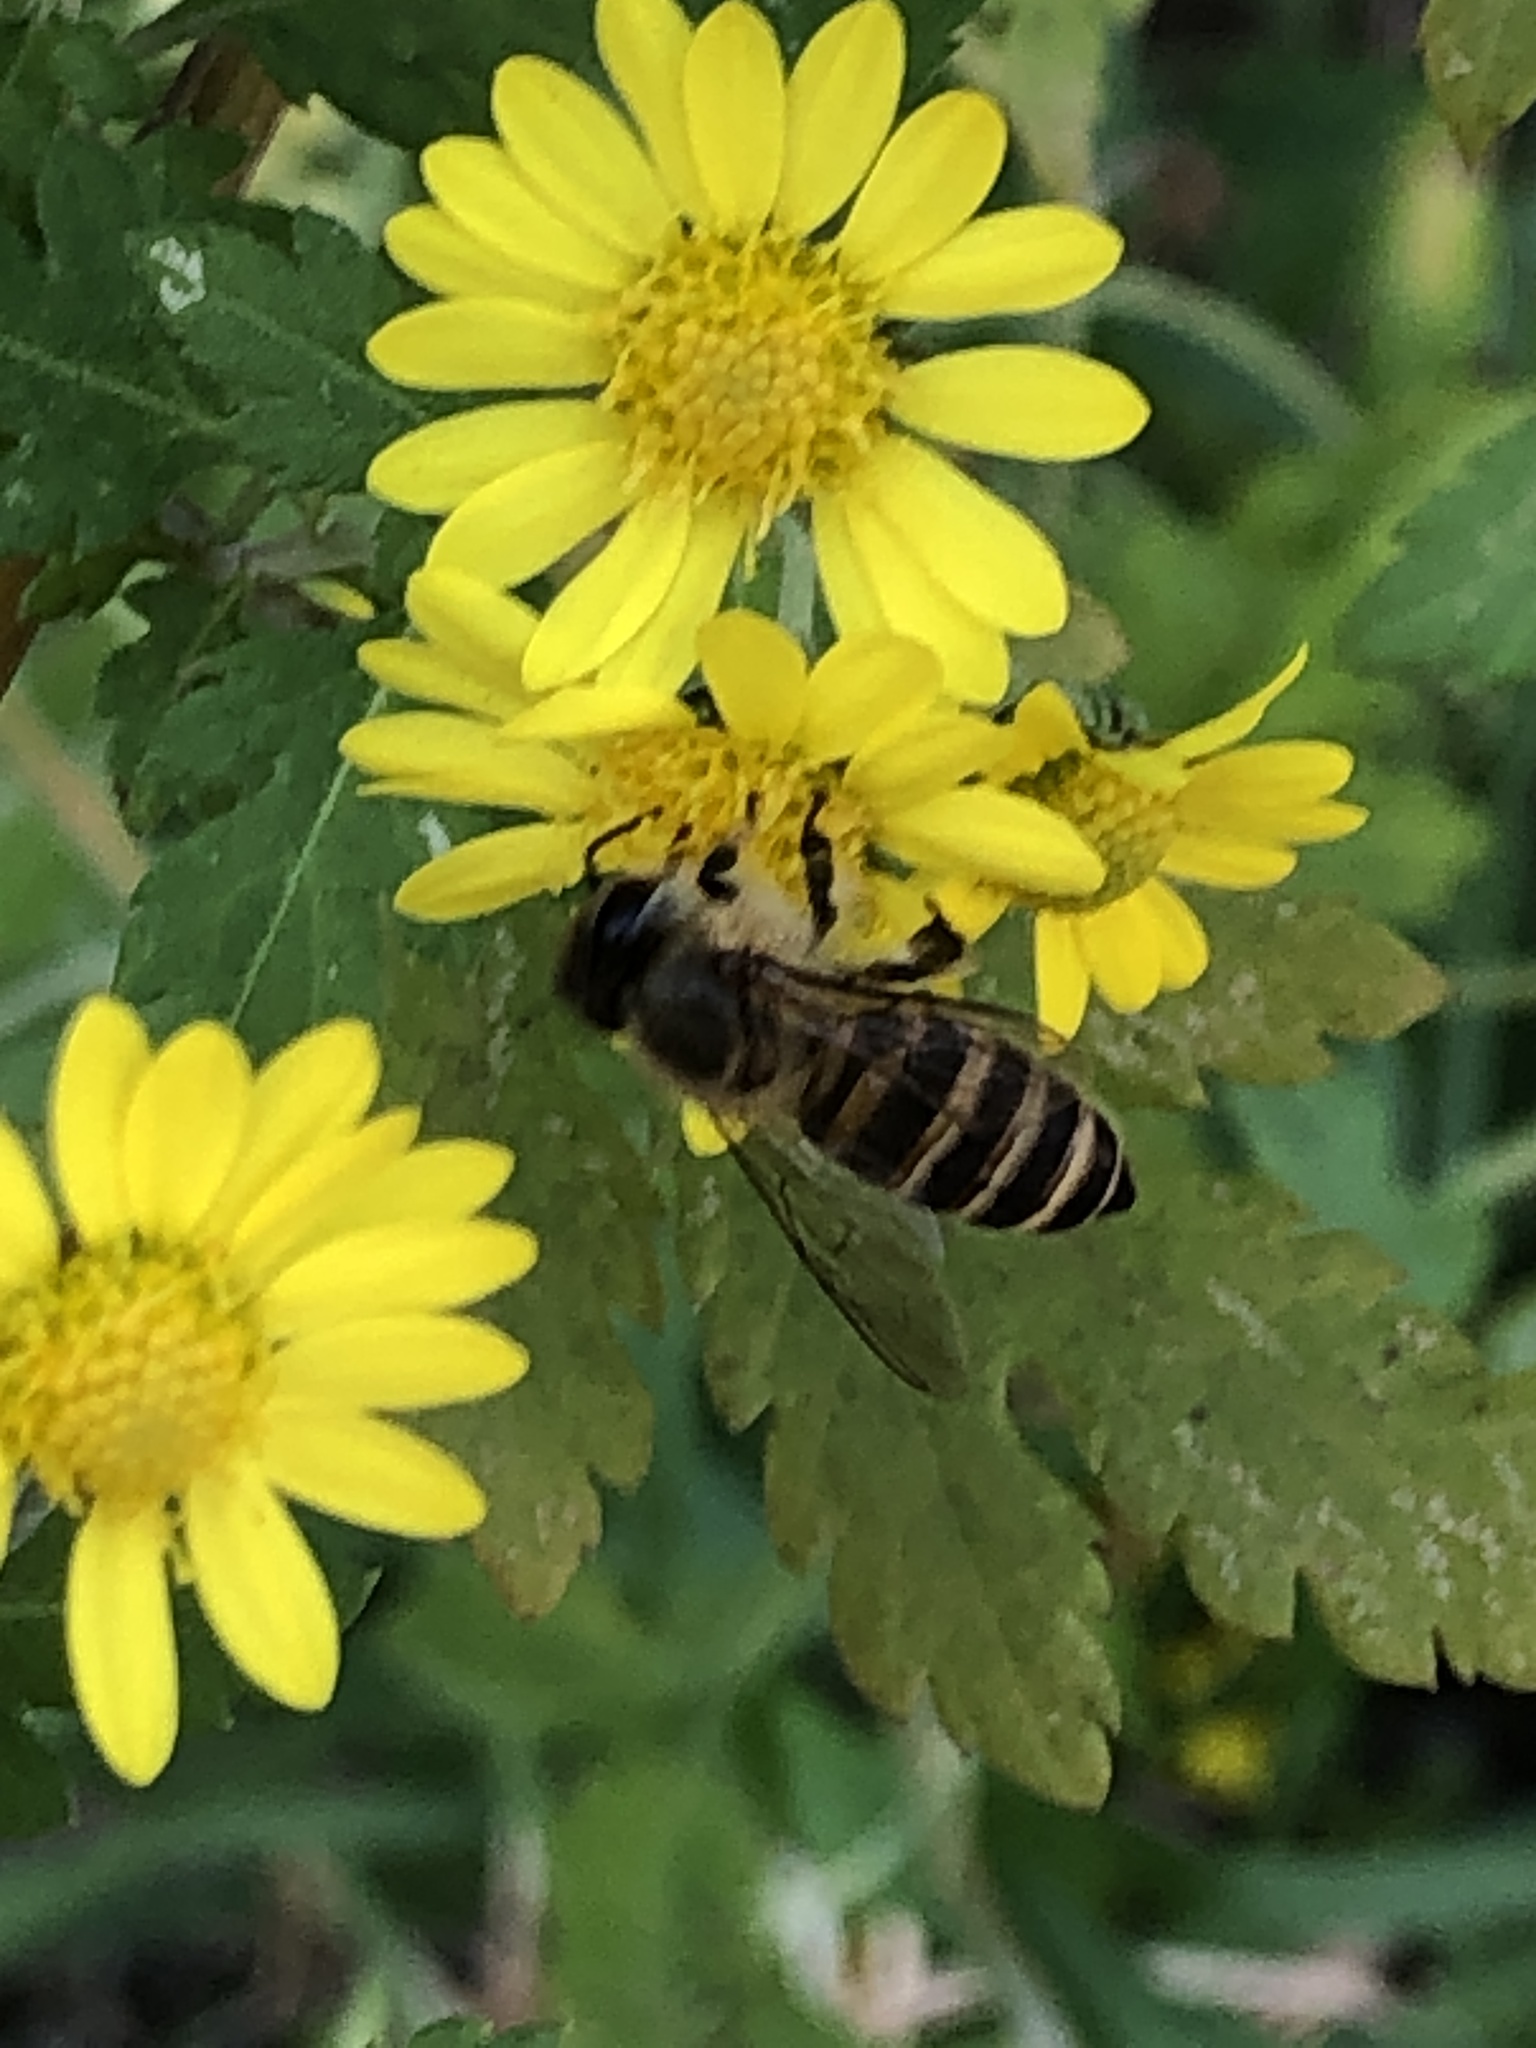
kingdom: Animalia
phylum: Arthropoda
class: Insecta
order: Hymenoptera
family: Apidae
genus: Apis
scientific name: Apis cerana
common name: Honey bee
